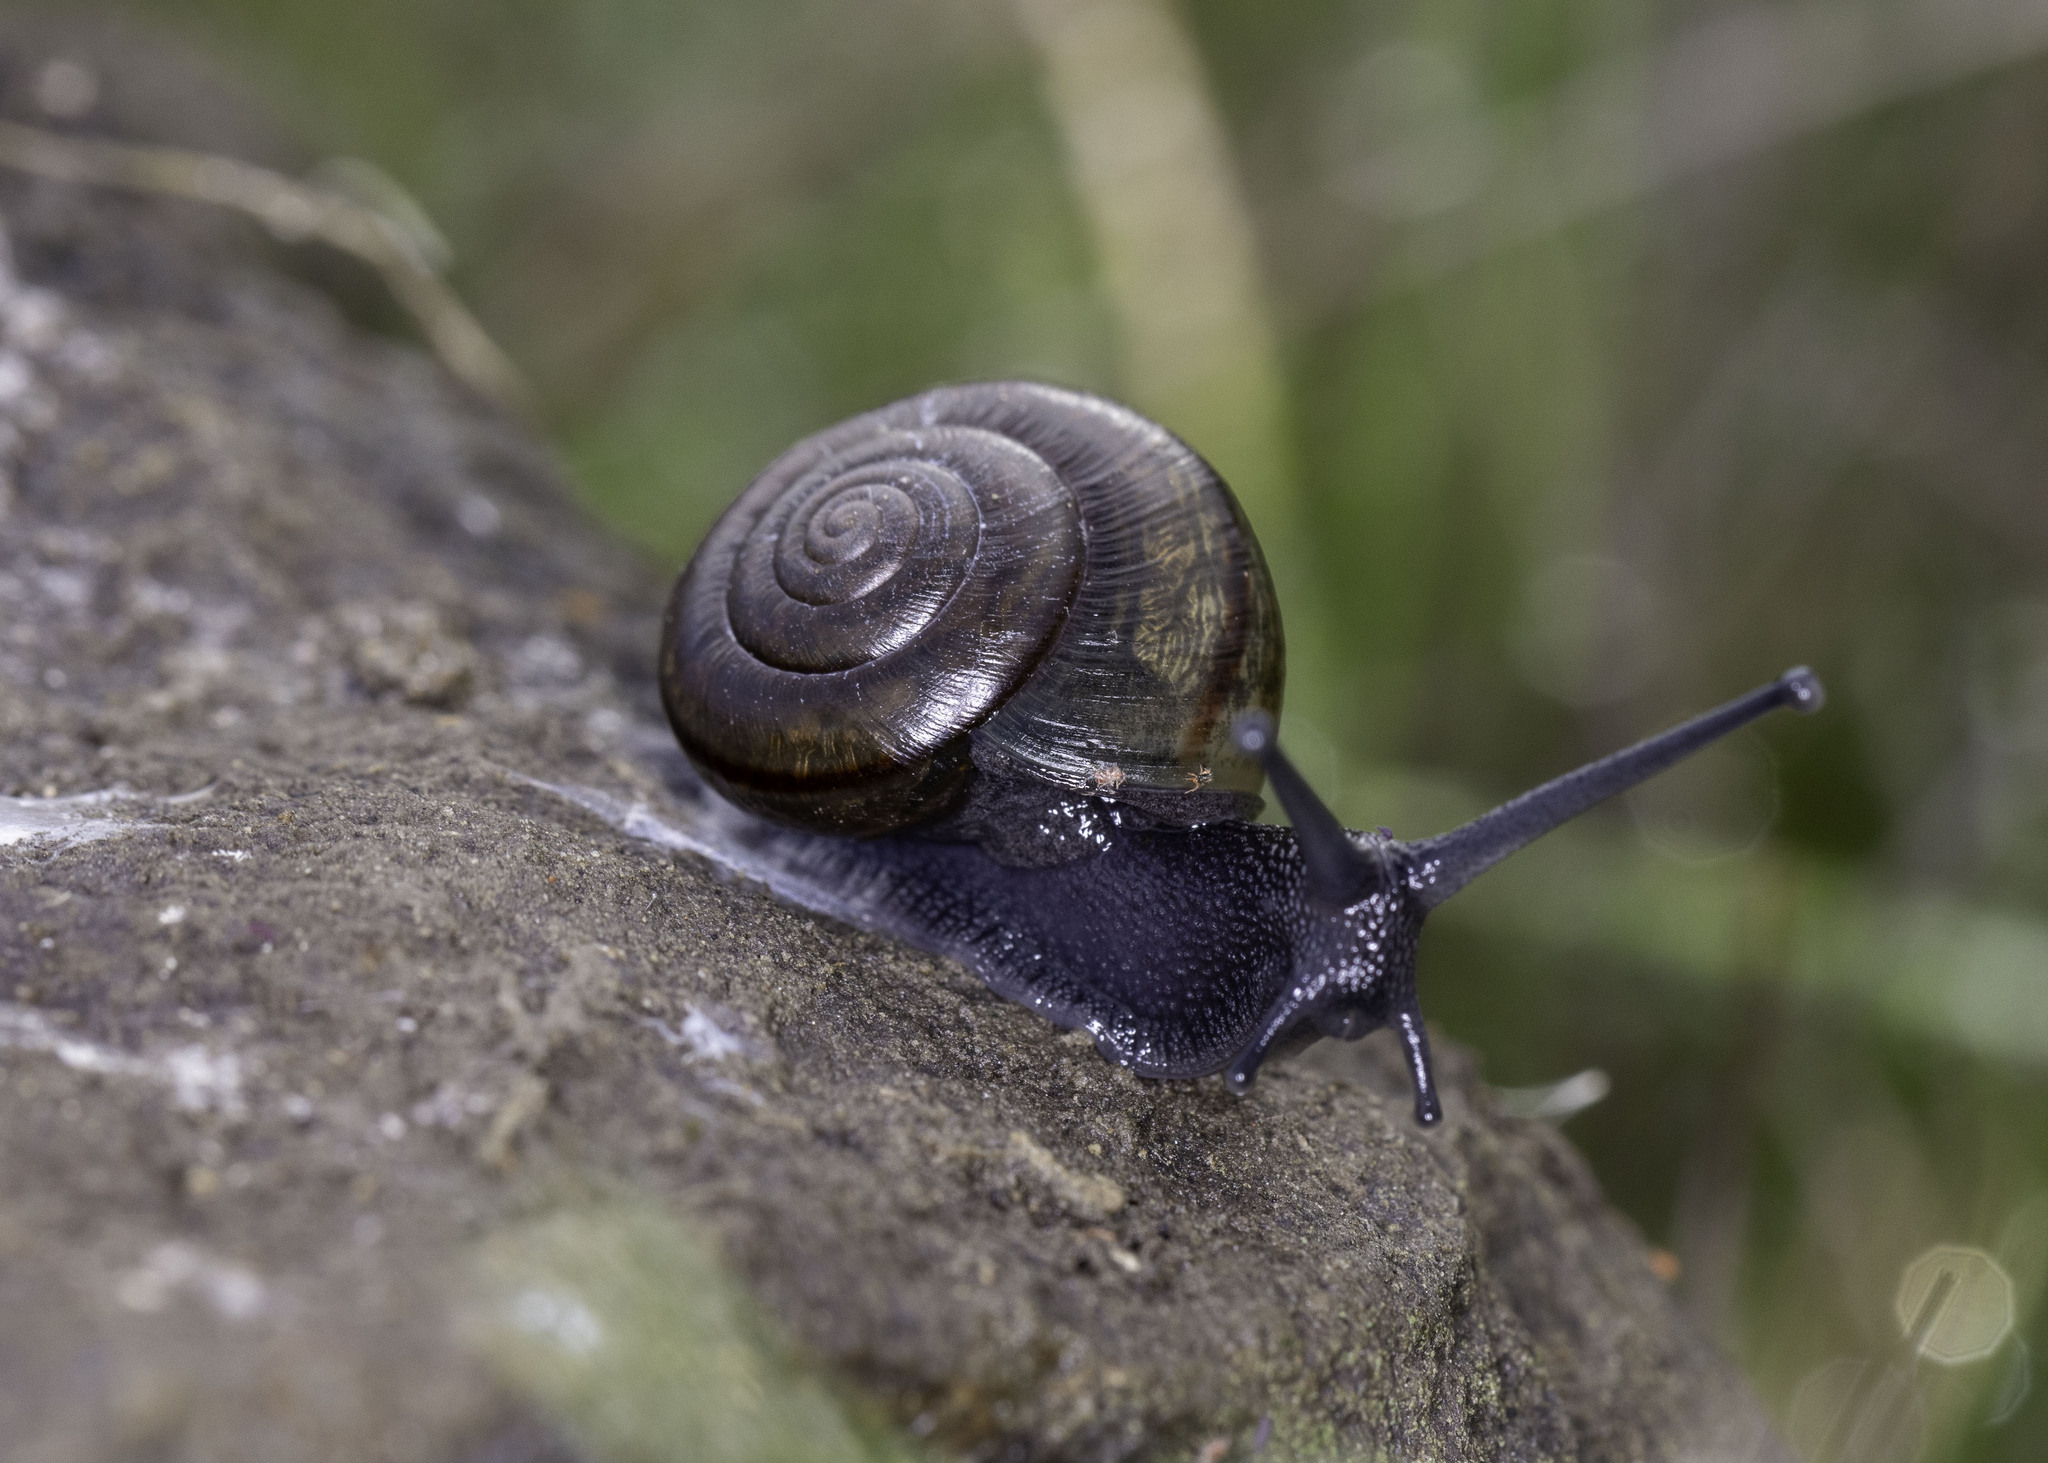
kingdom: Animalia
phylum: Mollusca
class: Gastropoda
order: Stylommatophora
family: Xanthonychidae
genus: Helminthoglypta
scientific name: Helminthoglypta traskii
